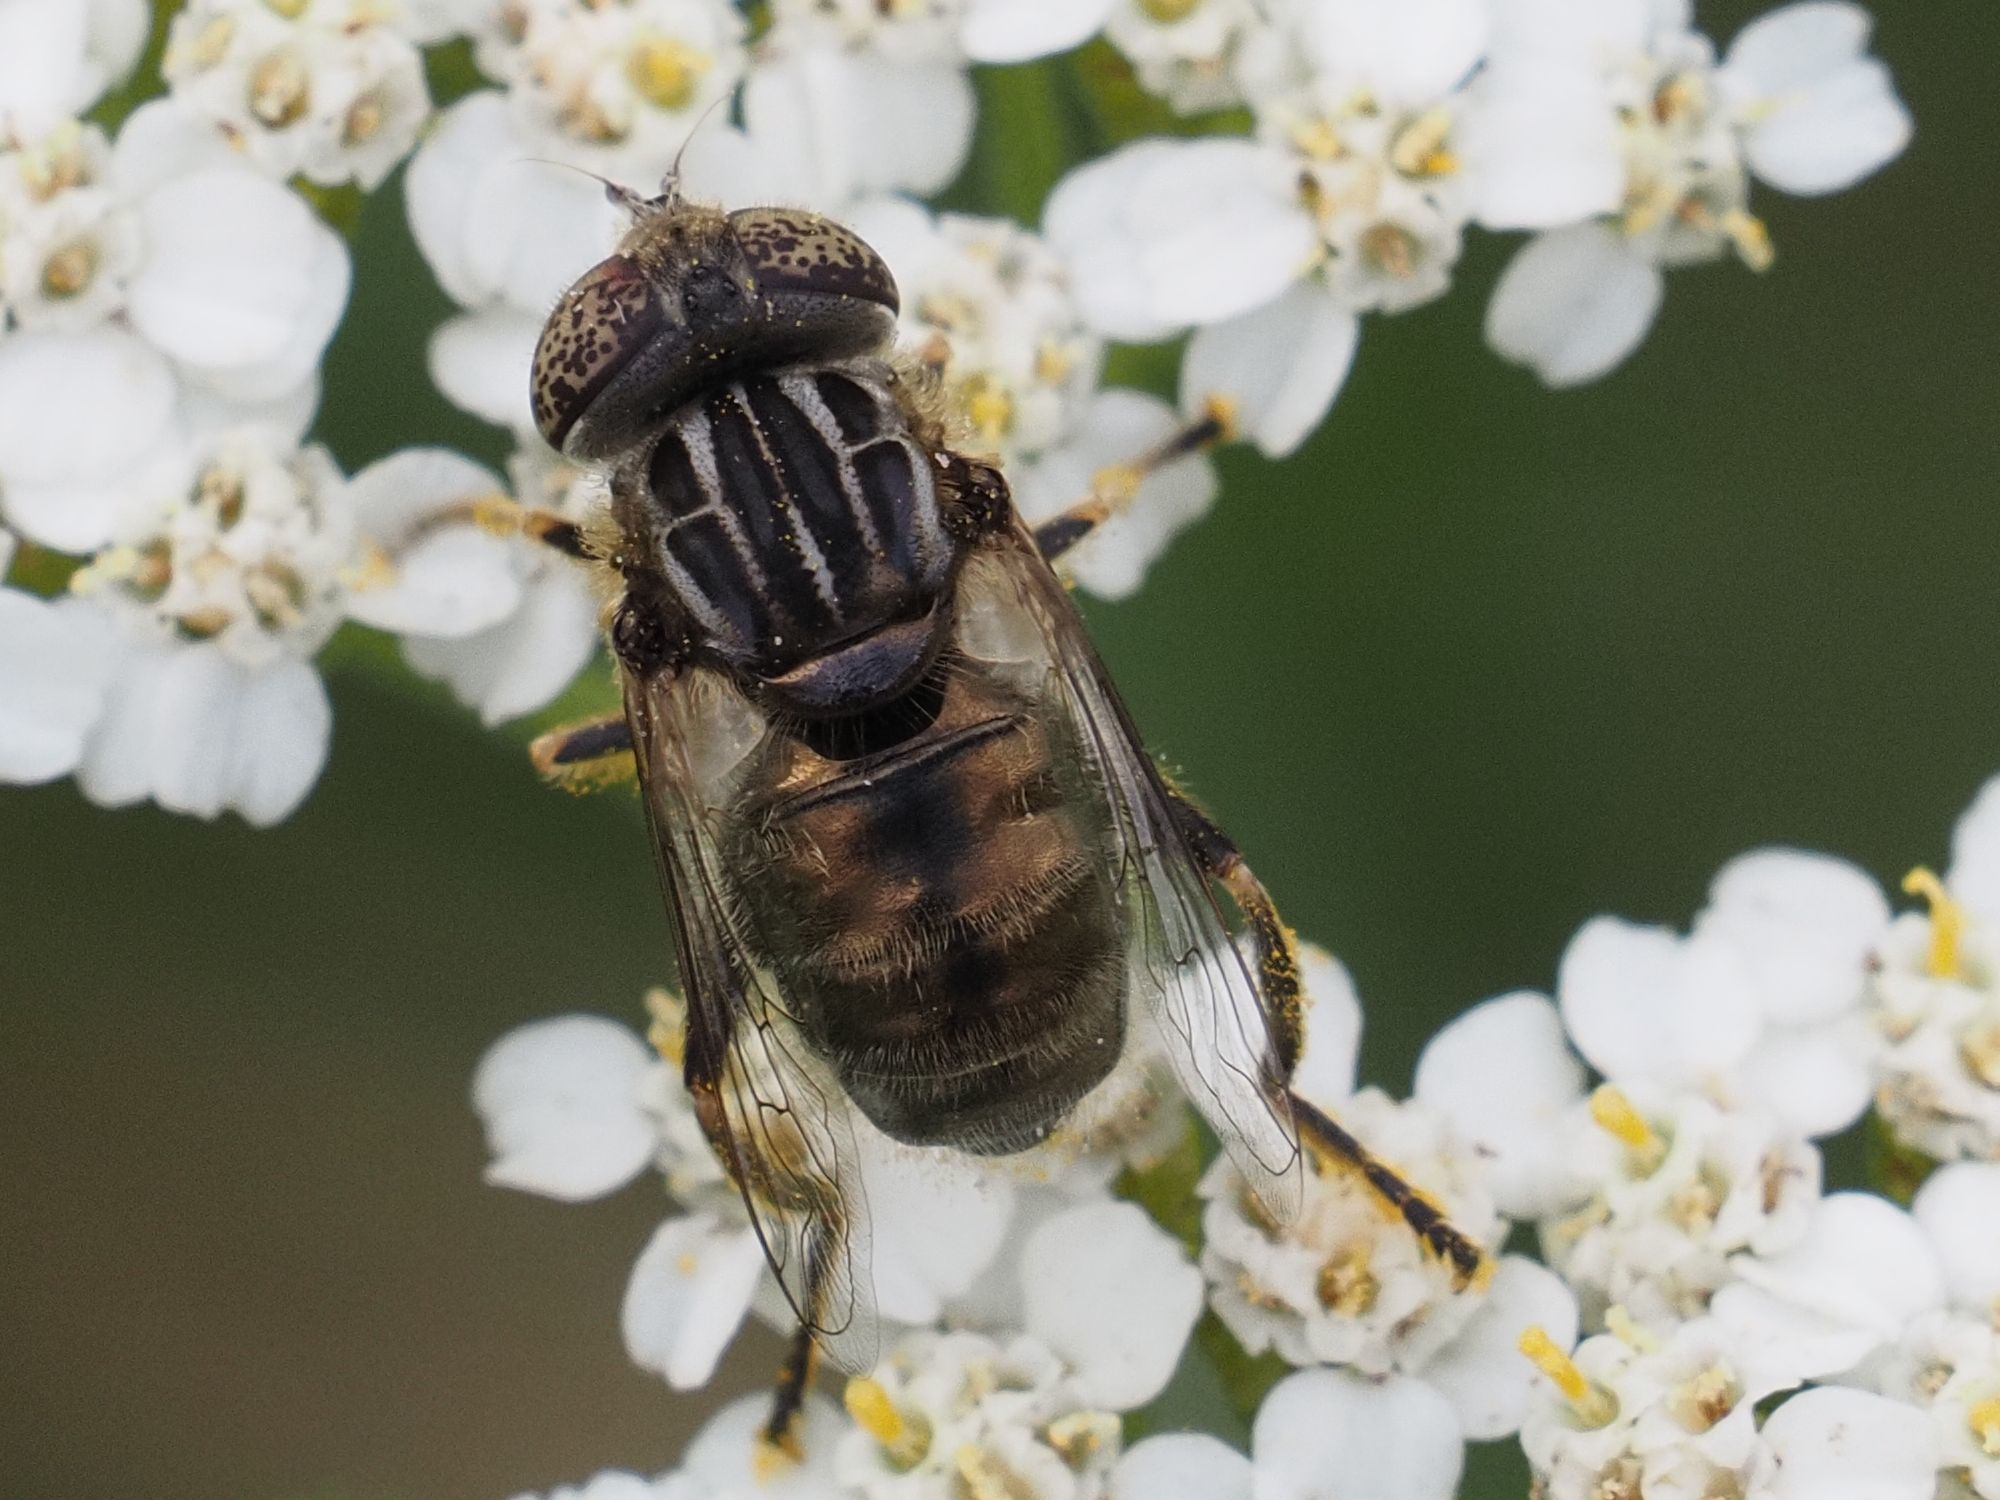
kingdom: Animalia
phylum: Arthropoda
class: Insecta
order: Diptera
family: Syrphidae
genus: Eristalinus
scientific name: Eristalinus sepulchralis
